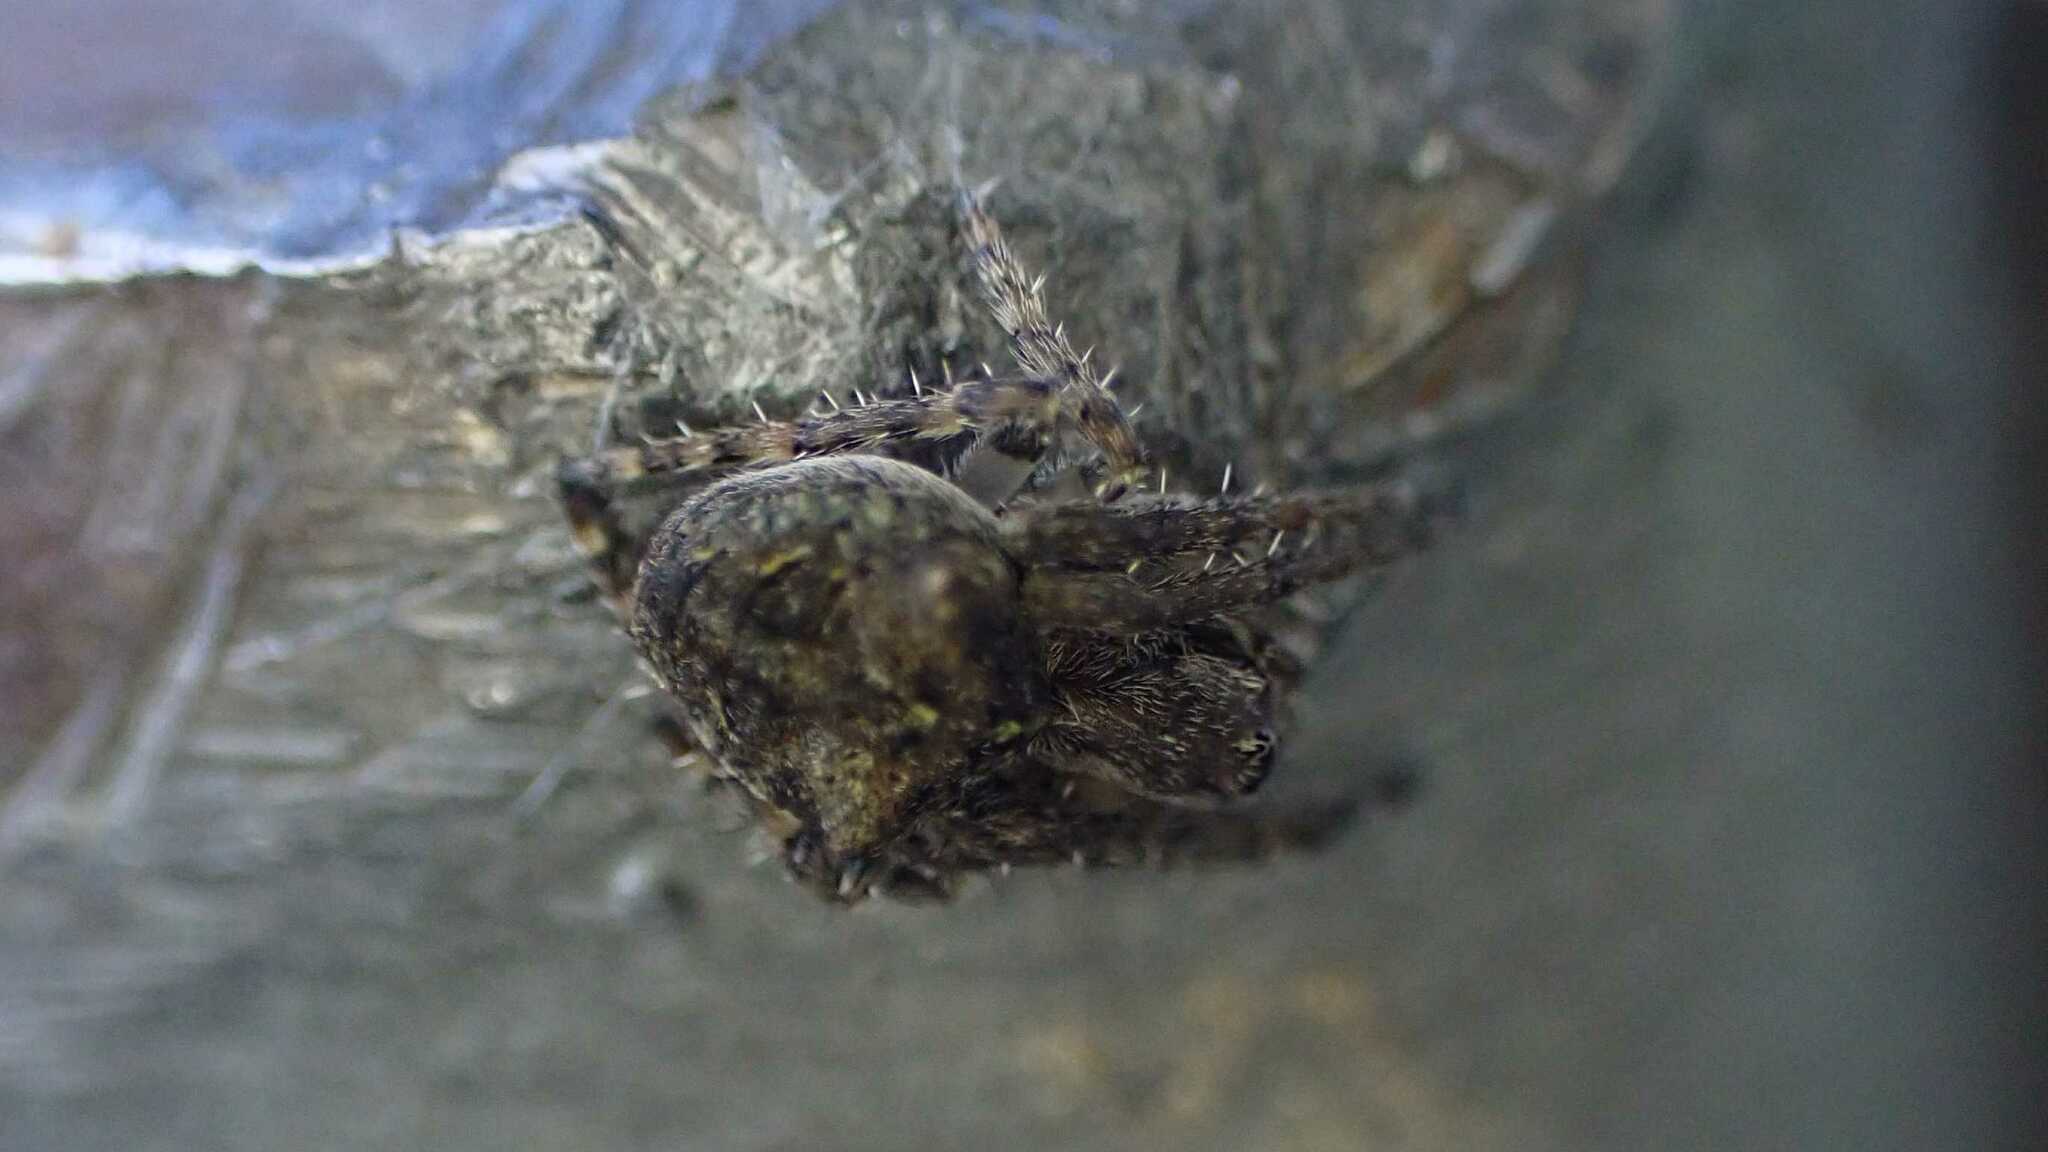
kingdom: Animalia
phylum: Arthropoda
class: Arachnida
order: Araneae
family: Araneidae
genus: Gibbaranea
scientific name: Gibbaranea gibbosa
